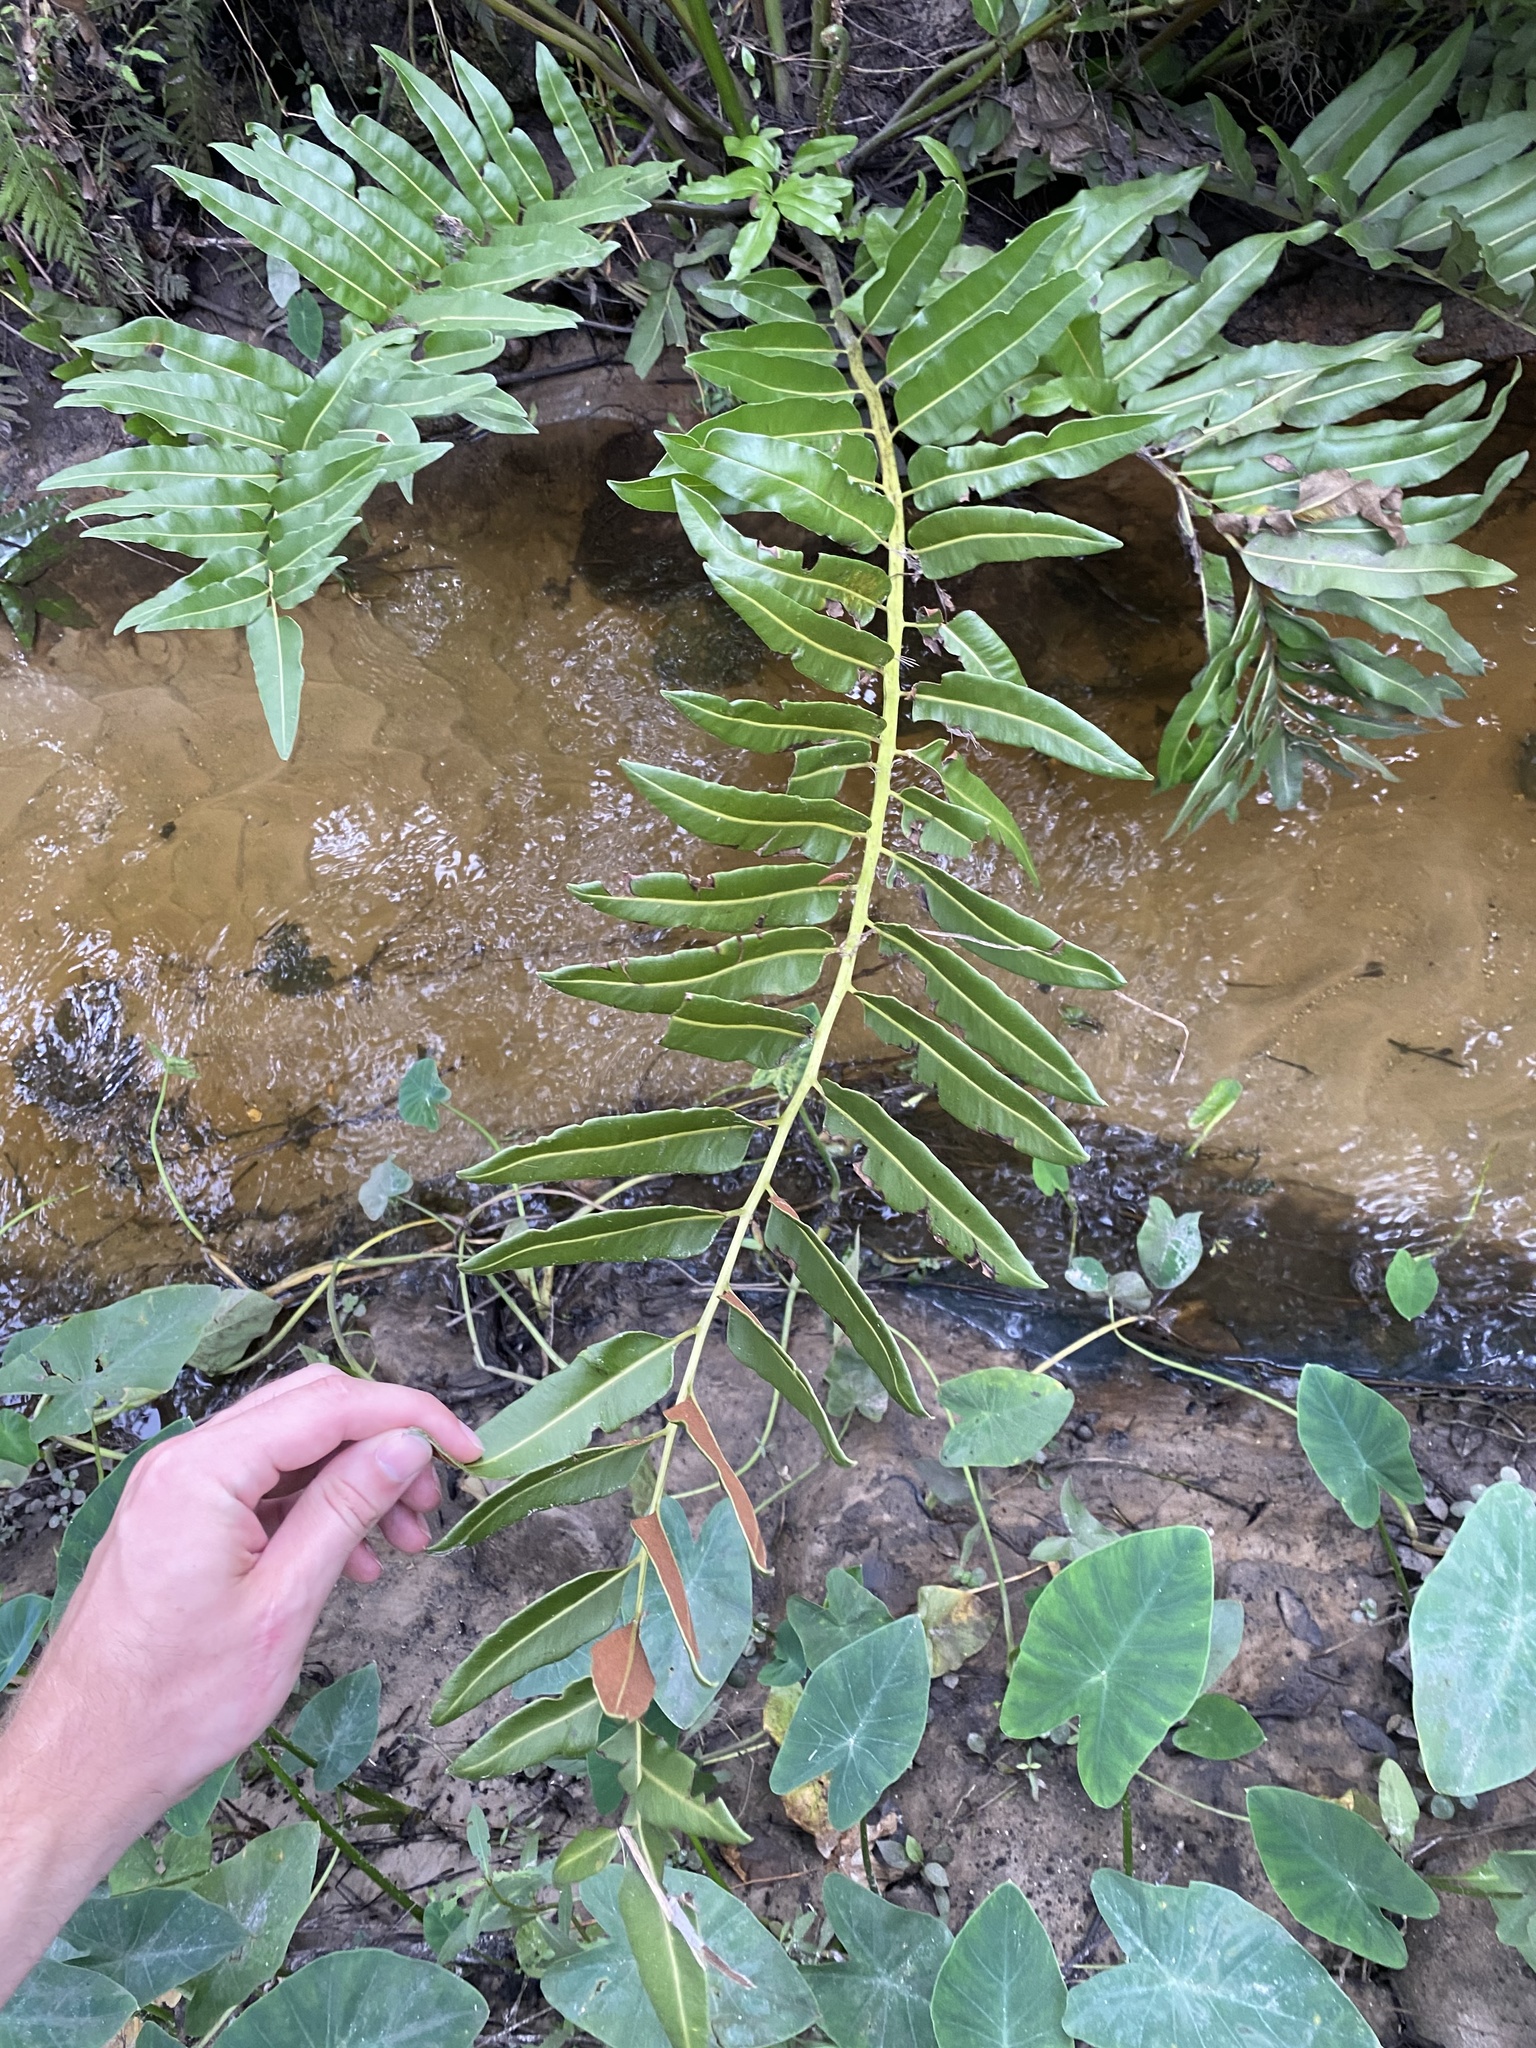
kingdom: Plantae
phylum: Tracheophyta
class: Polypodiopsida
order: Polypodiales
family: Pteridaceae
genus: Acrostichum
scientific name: Acrostichum danaeifolium
